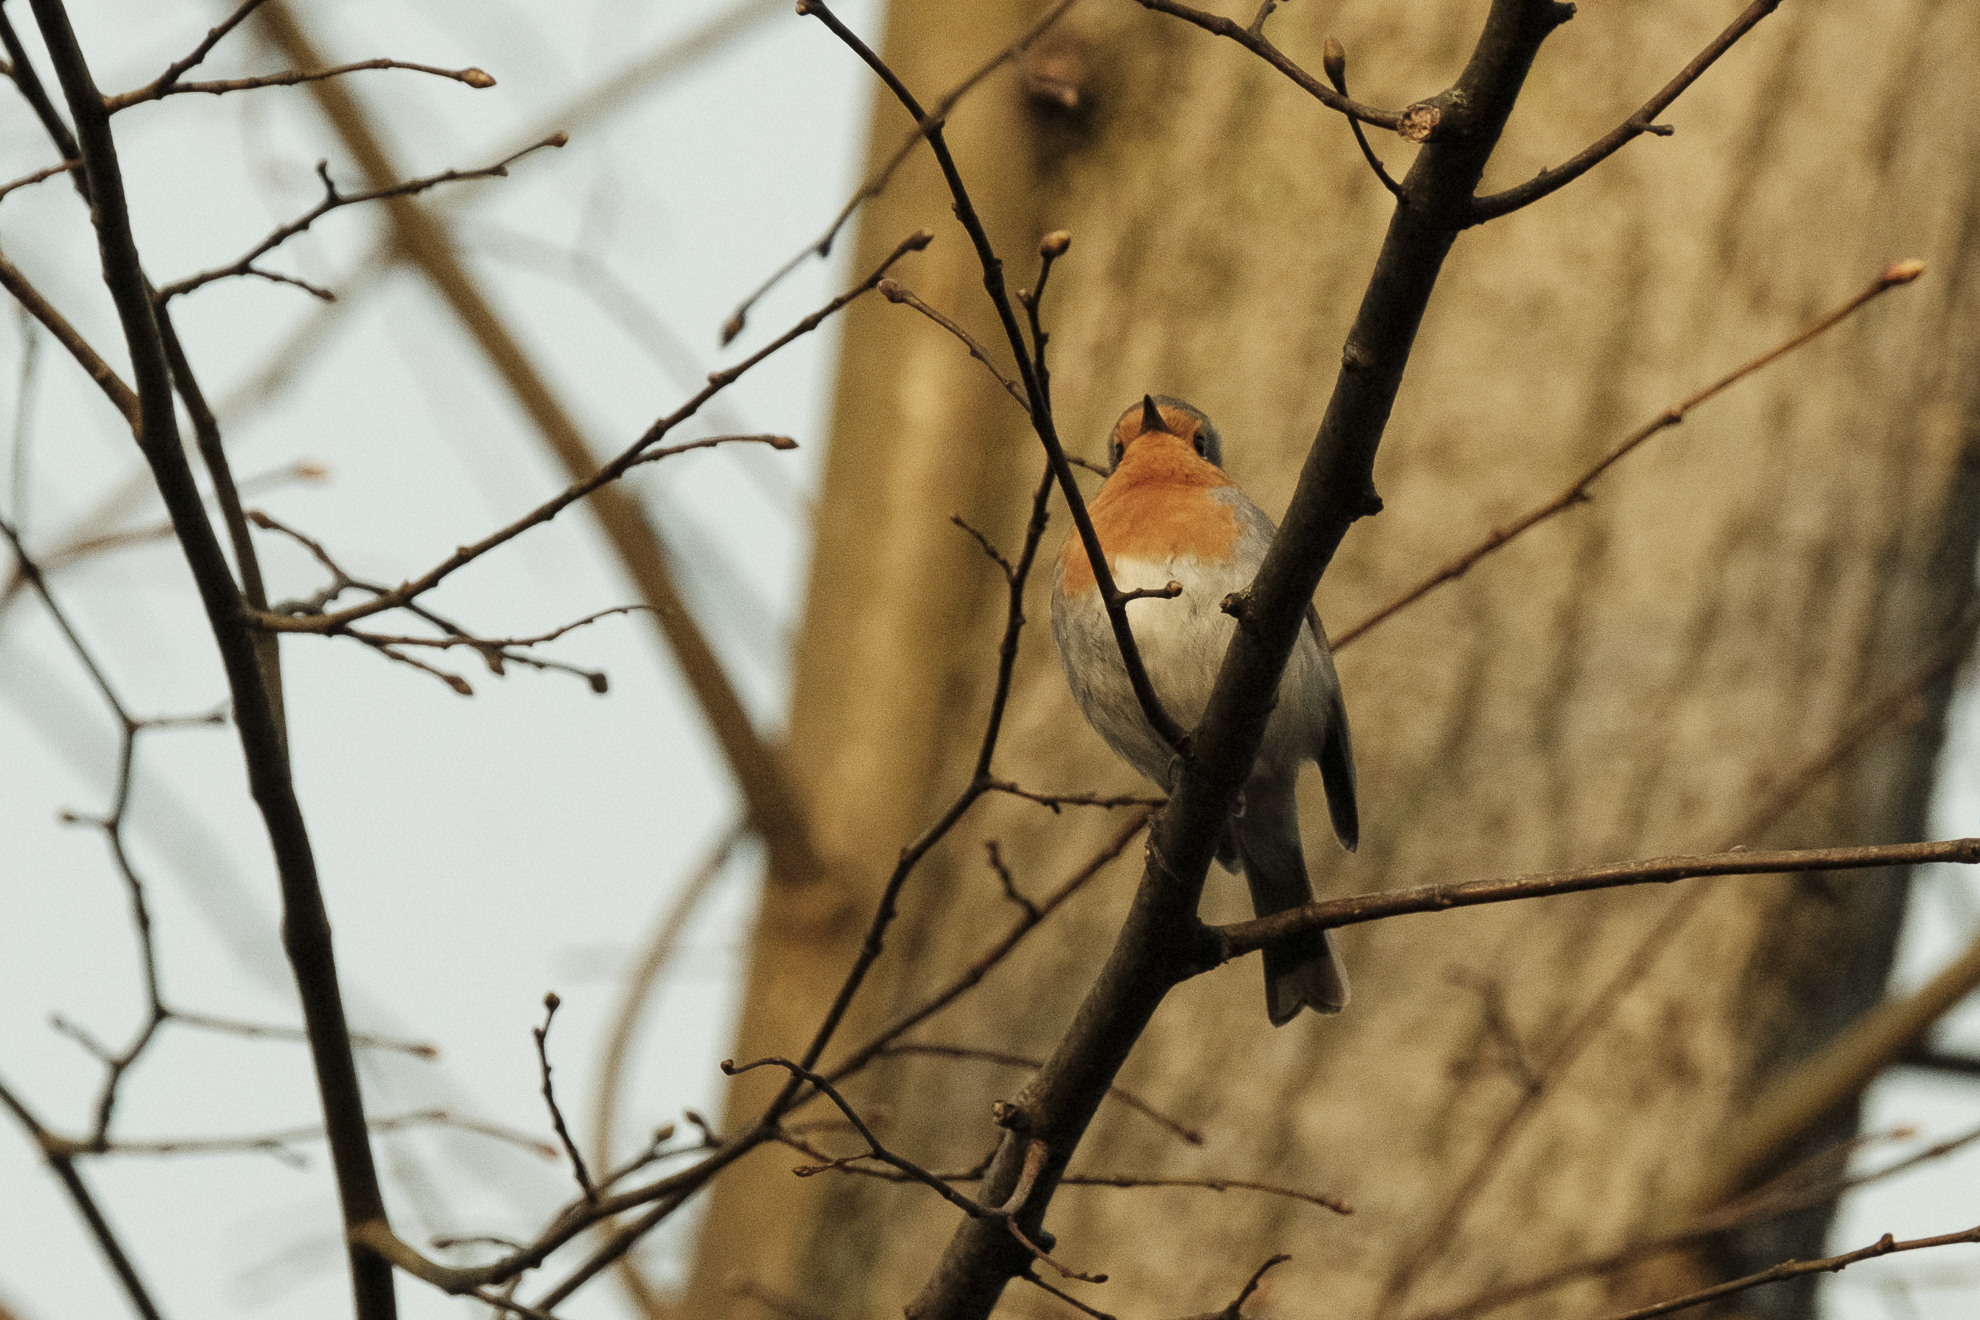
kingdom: Animalia
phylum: Chordata
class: Aves
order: Passeriformes
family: Muscicapidae
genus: Erithacus
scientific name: Erithacus rubecula
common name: European robin
